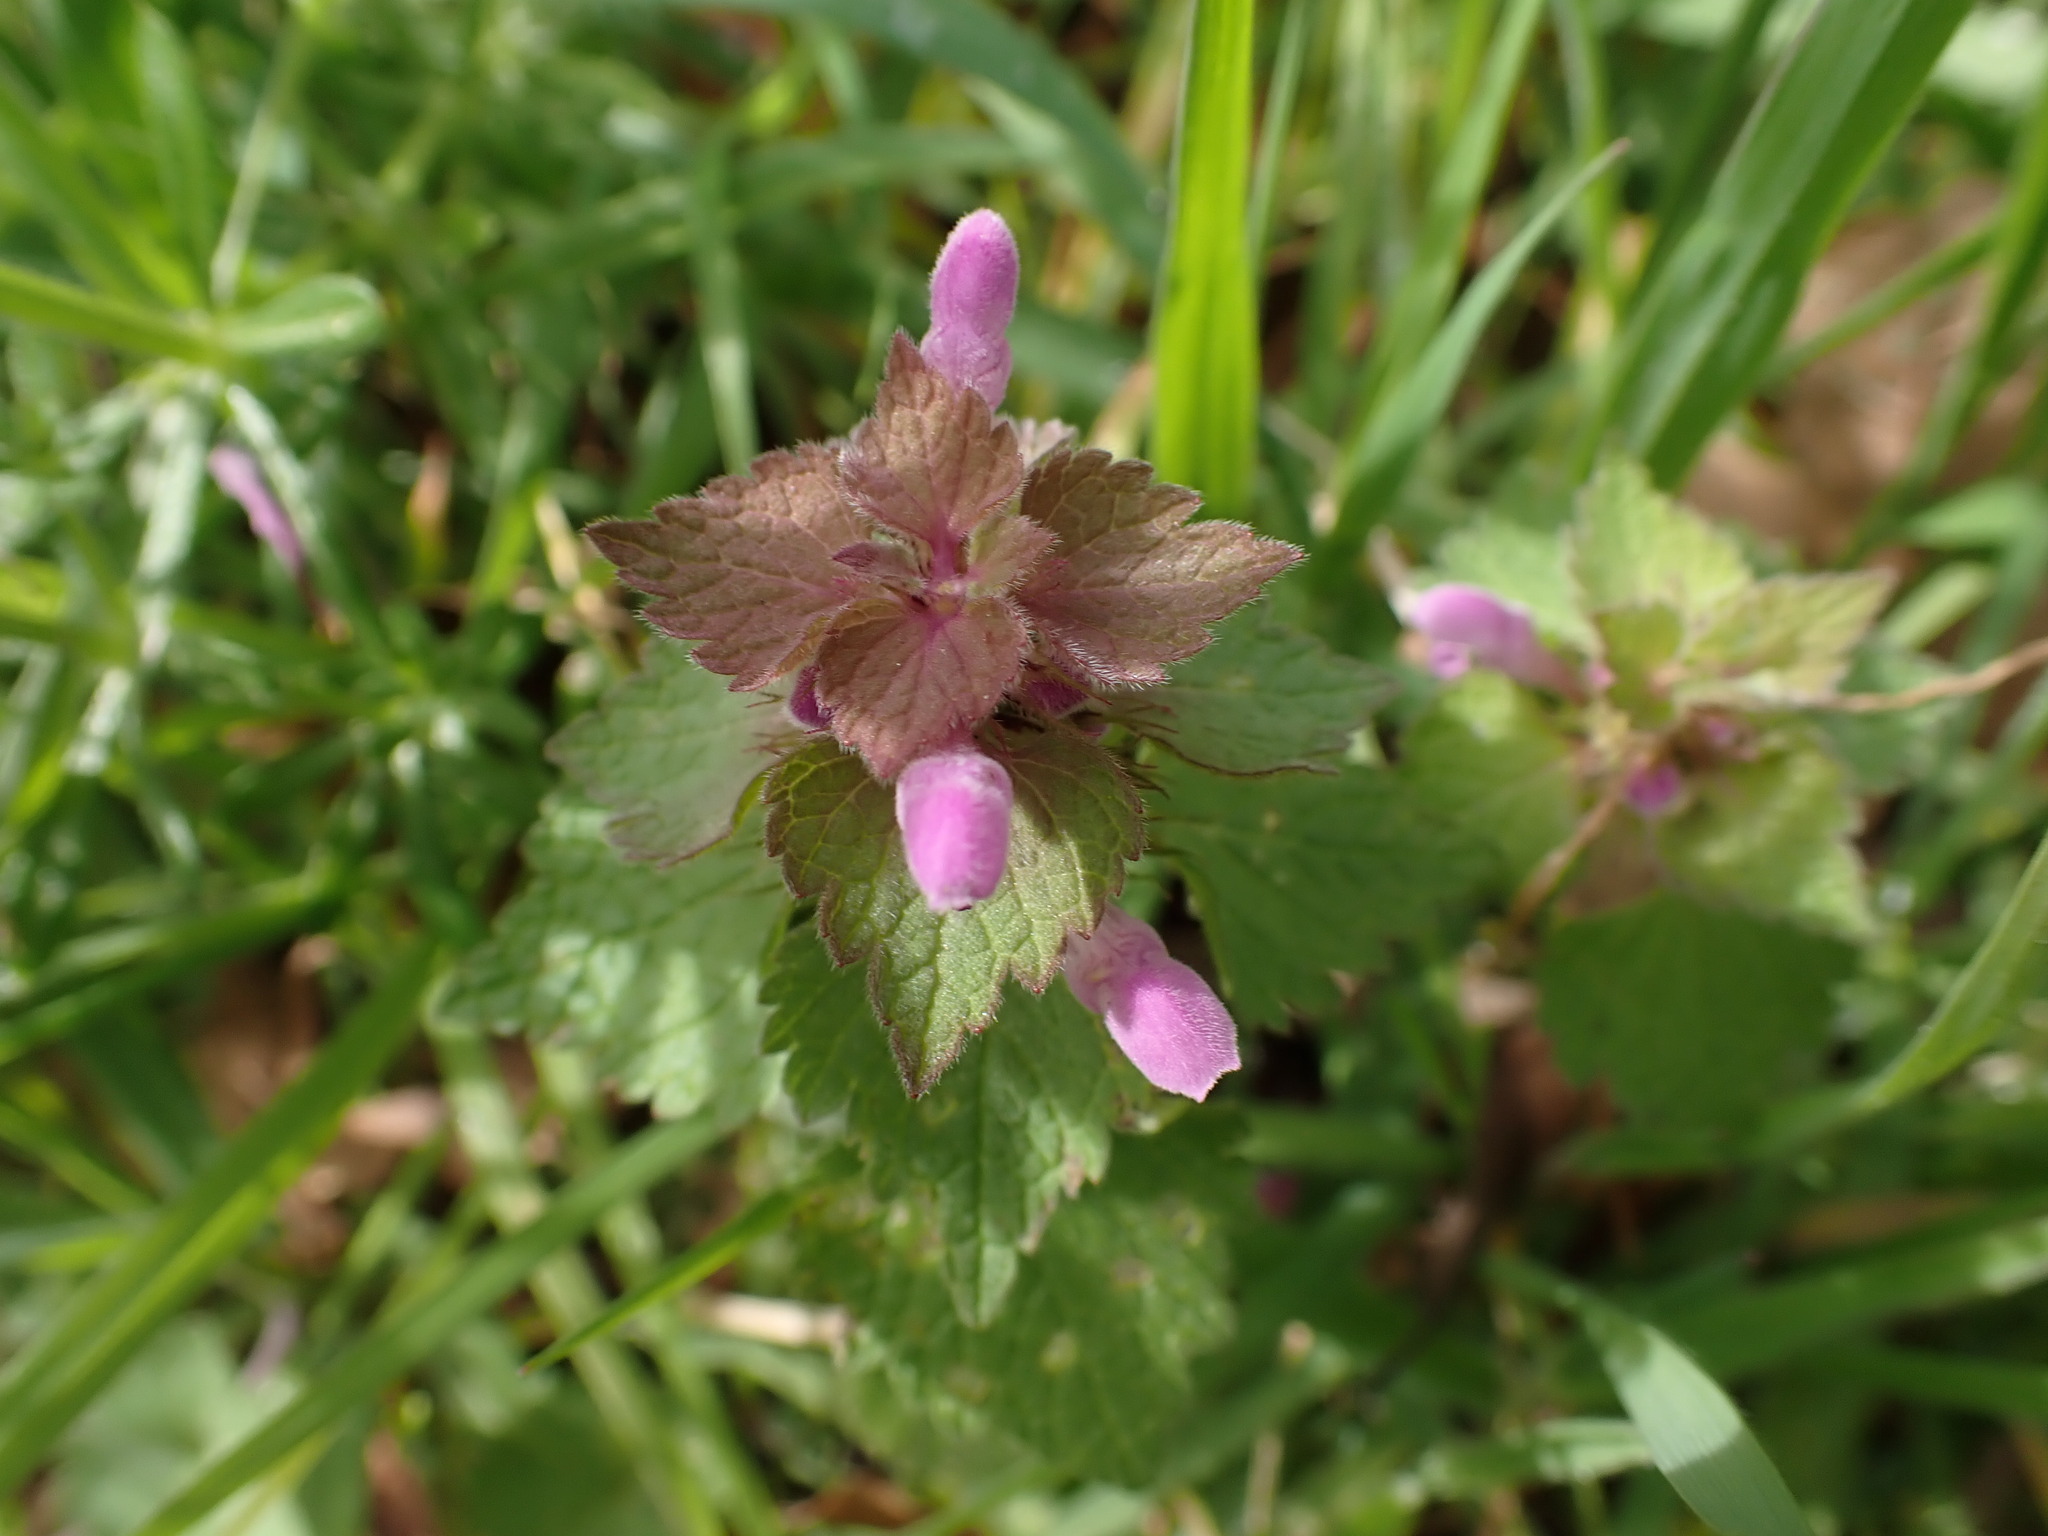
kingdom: Plantae
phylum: Tracheophyta
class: Magnoliopsida
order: Lamiales
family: Lamiaceae
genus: Lamium
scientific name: Lamium purpureum
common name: Red dead-nettle
